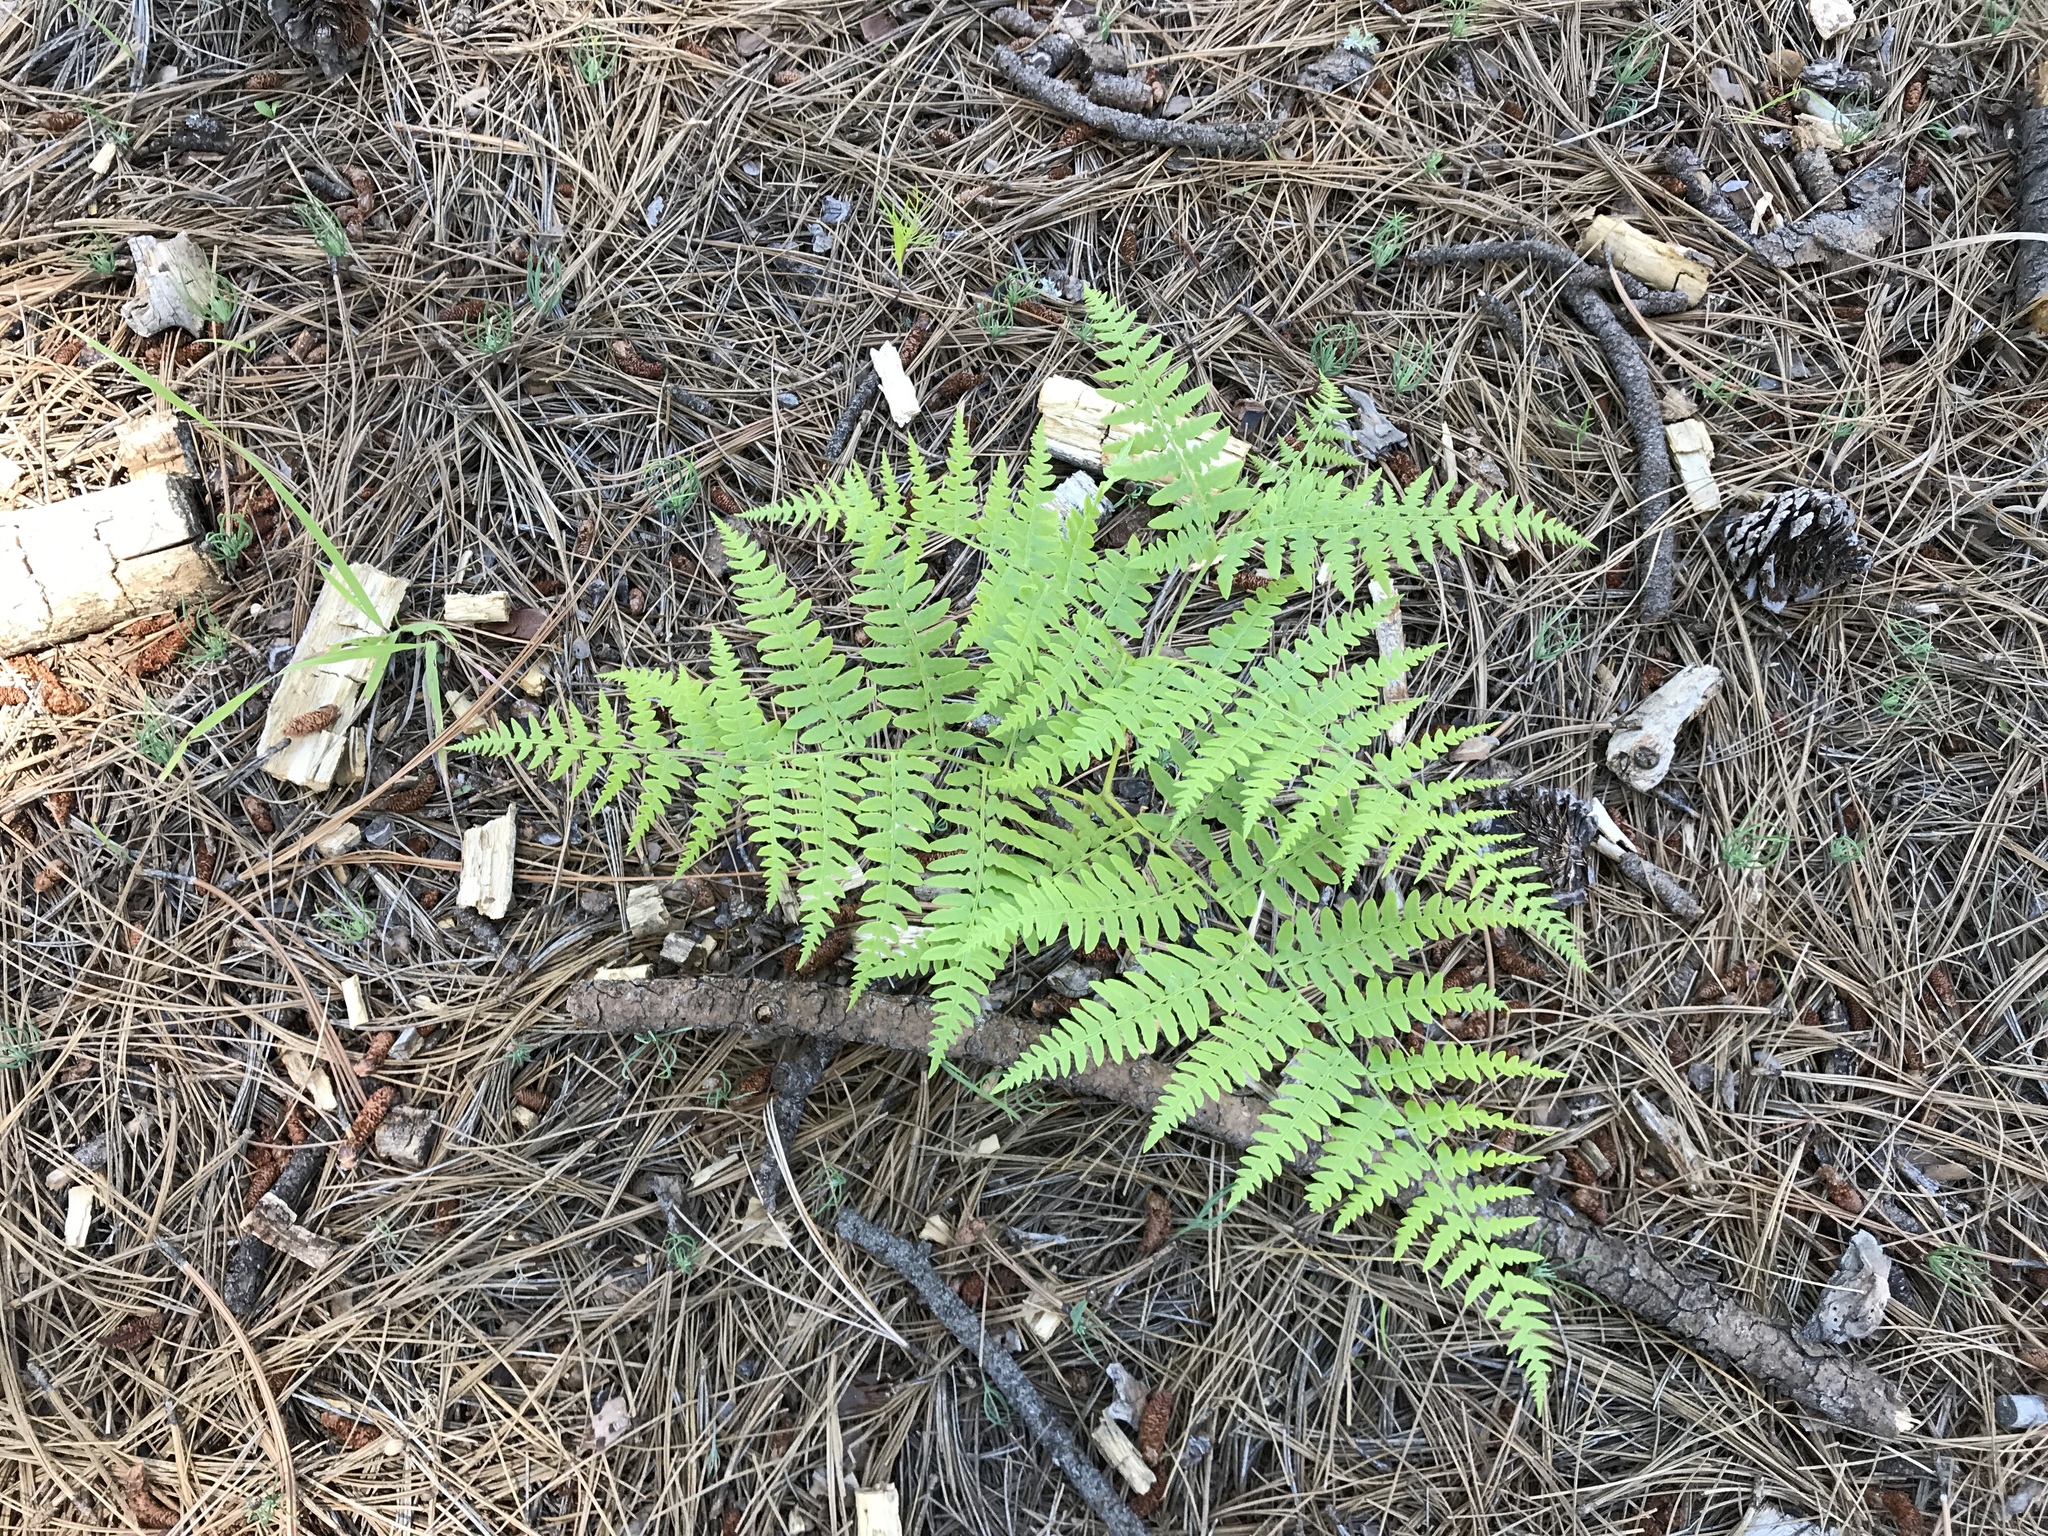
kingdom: Plantae
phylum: Tracheophyta
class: Polypodiopsida
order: Polypodiales
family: Dennstaedtiaceae
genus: Pteridium
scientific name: Pteridium aquilinum
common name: Bracken
